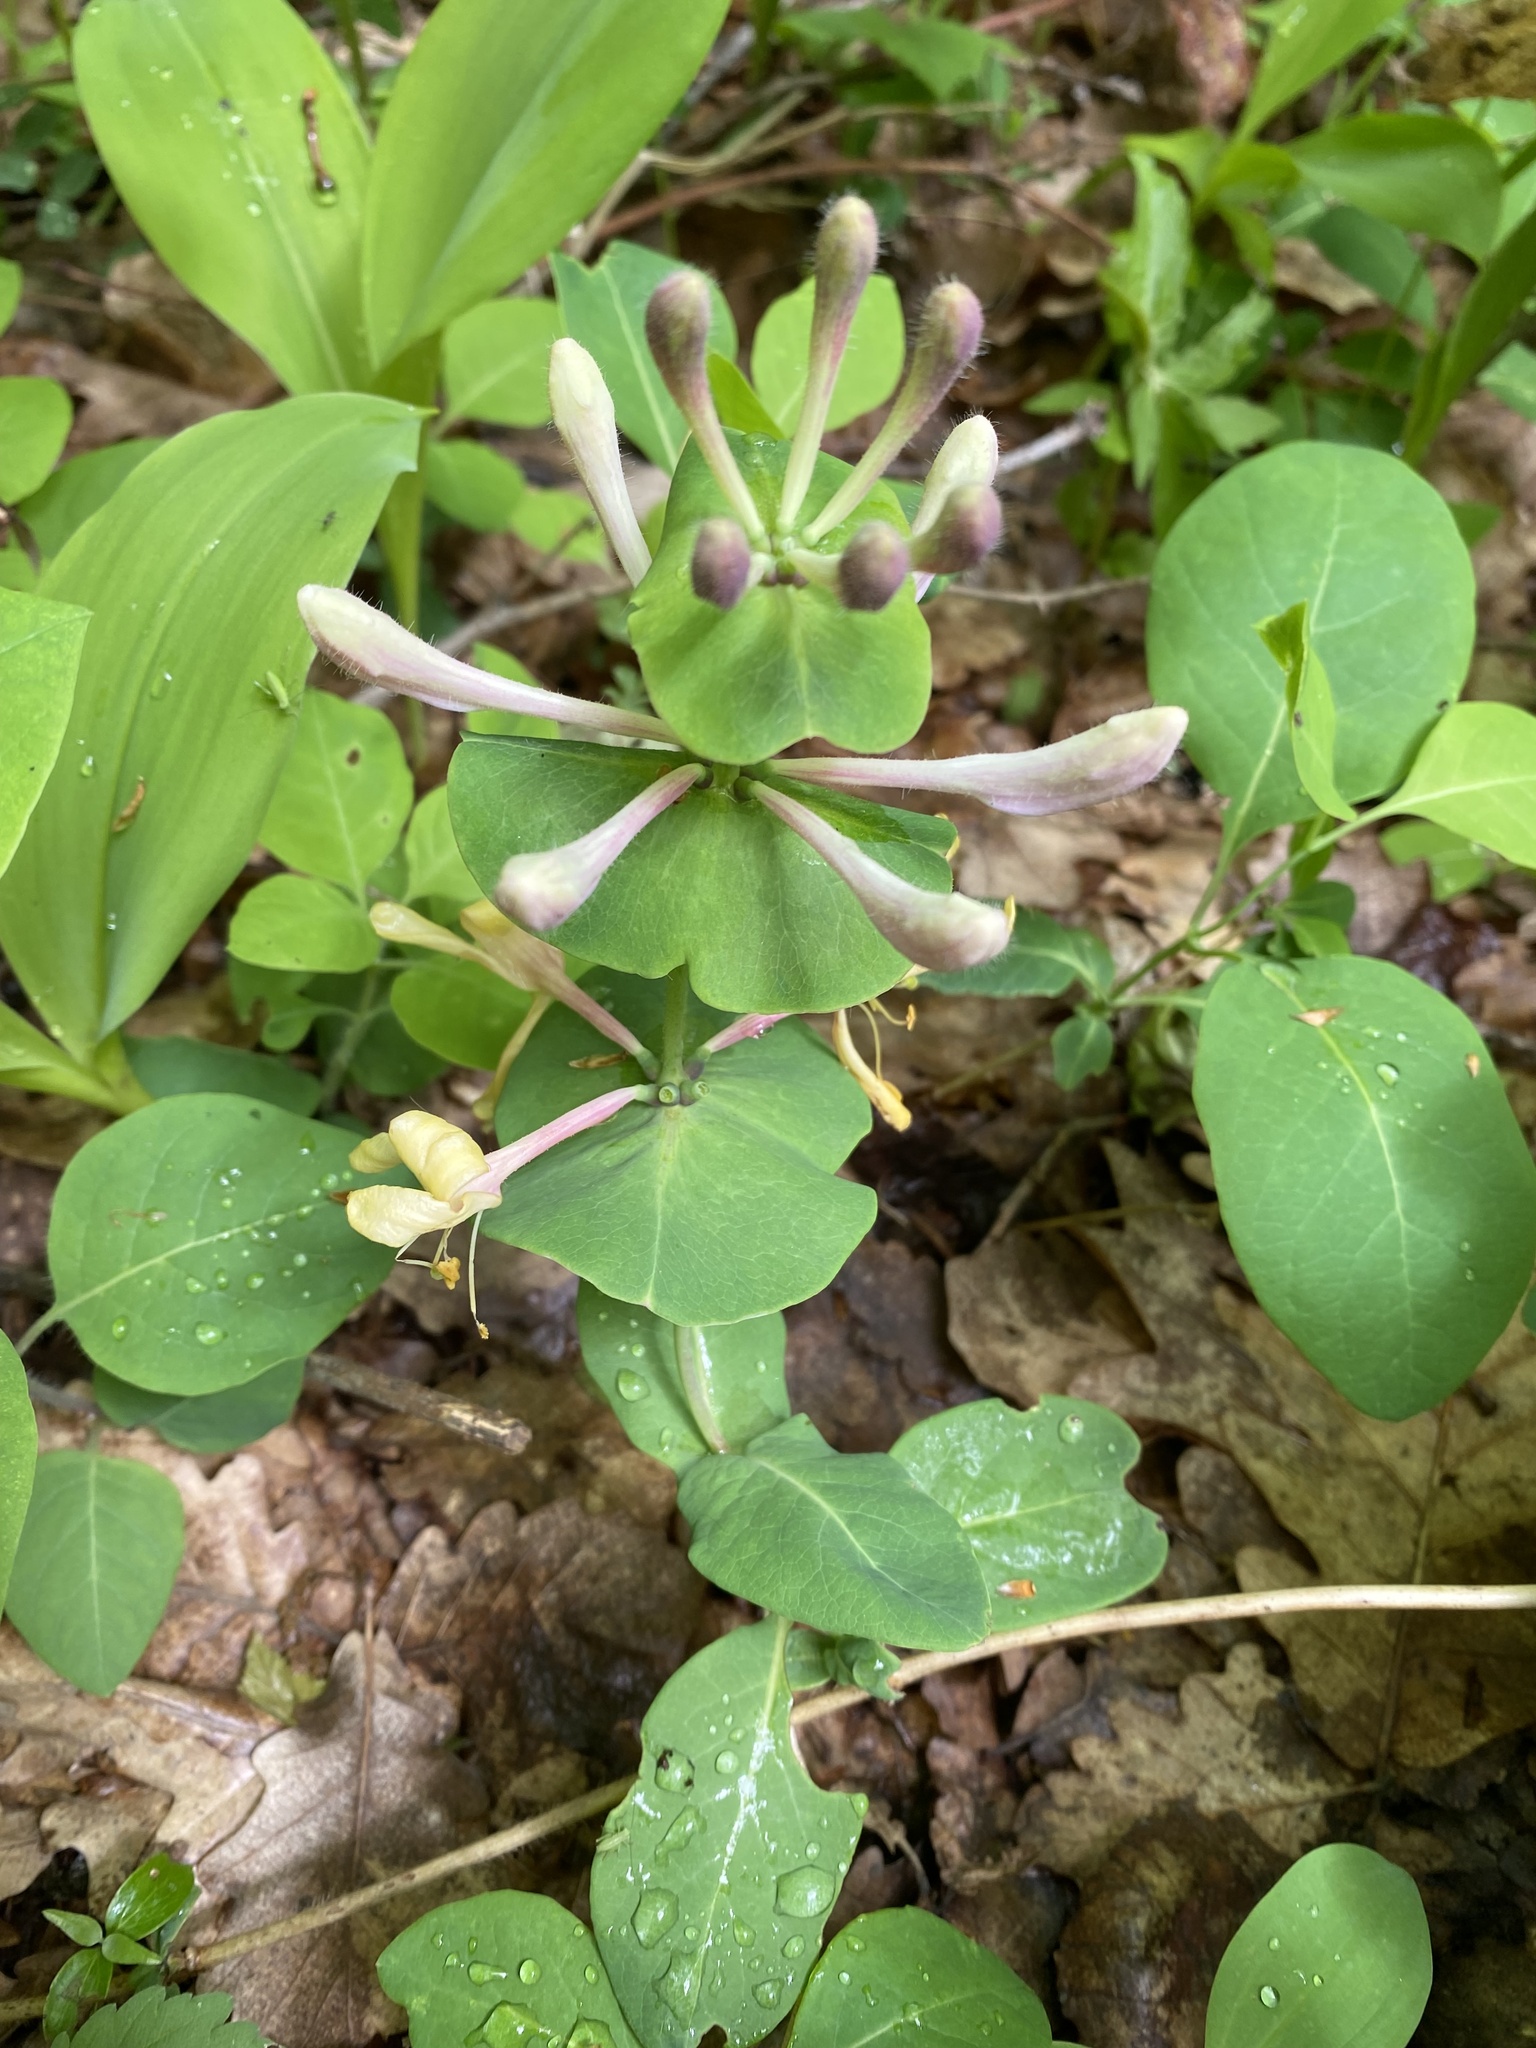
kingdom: Plantae
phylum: Tracheophyta
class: Magnoliopsida
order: Dipsacales
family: Caprifoliaceae
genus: Lonicera
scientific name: Lonicera caprifolium
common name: Perfoliate honeysuckle
